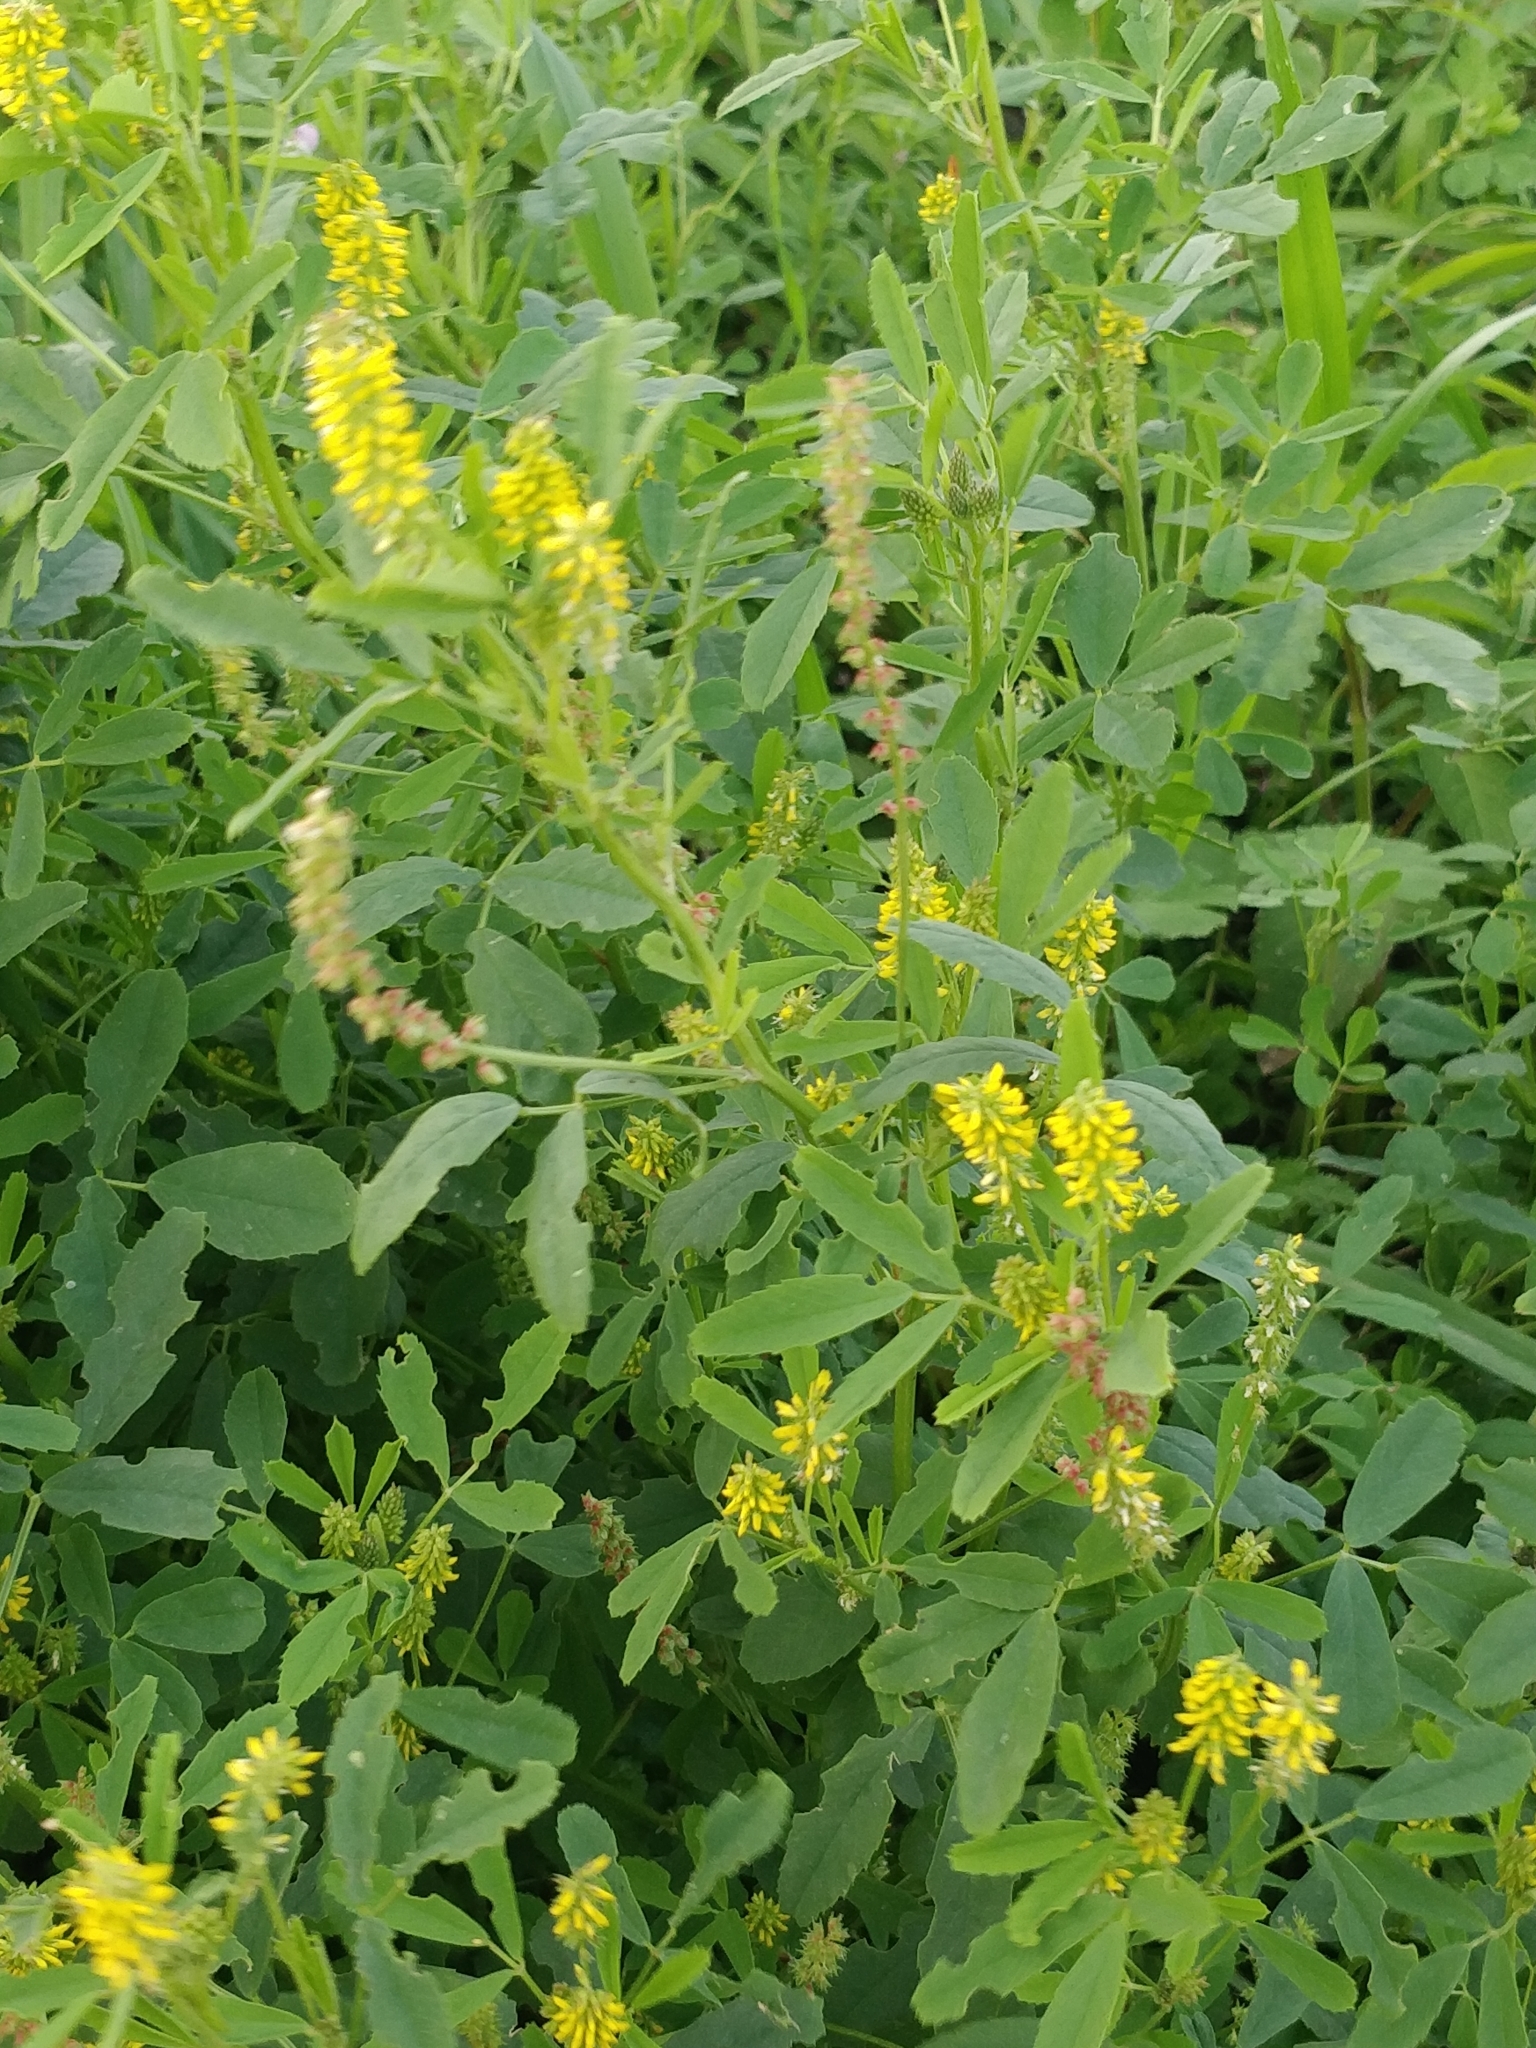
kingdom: Plantae
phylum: Tracheophyta
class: Magnoliopsida
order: Fabales
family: Fabaceae
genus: Melilotus
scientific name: Melilotus indicus
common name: Small melilot
